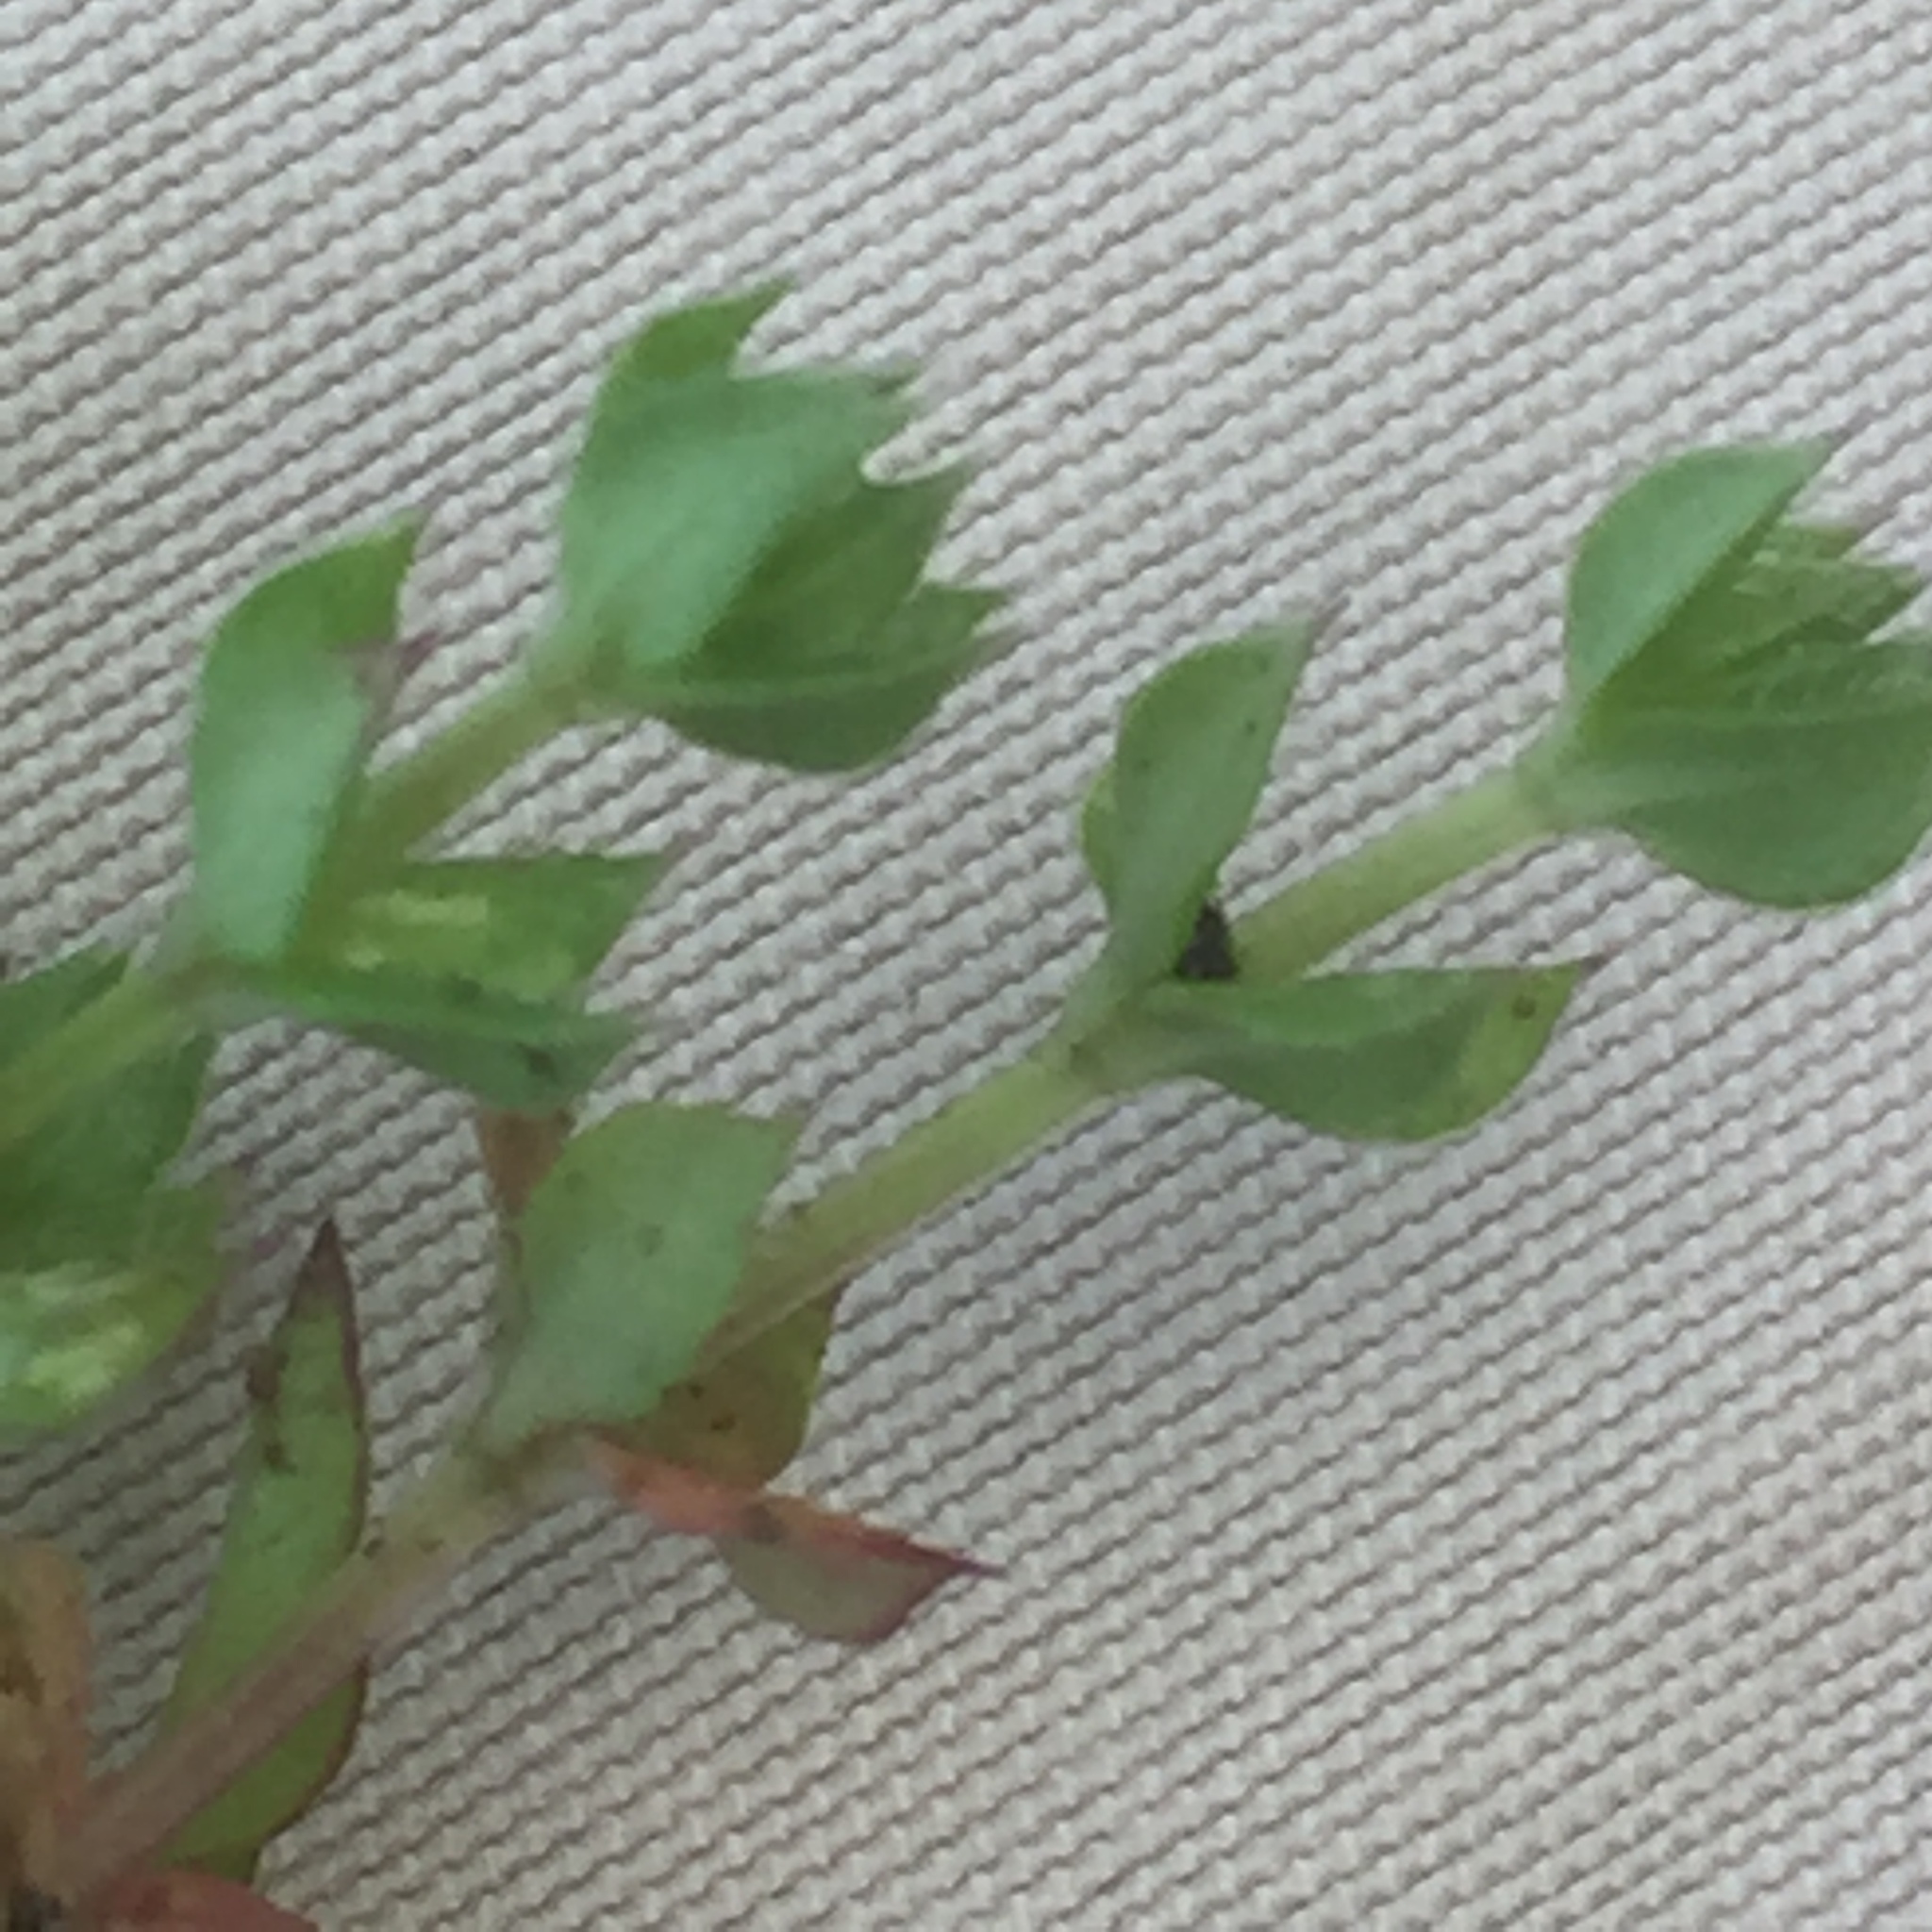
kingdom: Plantae
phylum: Tracheophyta
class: Magnoliopsida
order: Gentianales
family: Rubiaceae
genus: Sherardia
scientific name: Sherardia arvensis
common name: Field madder
